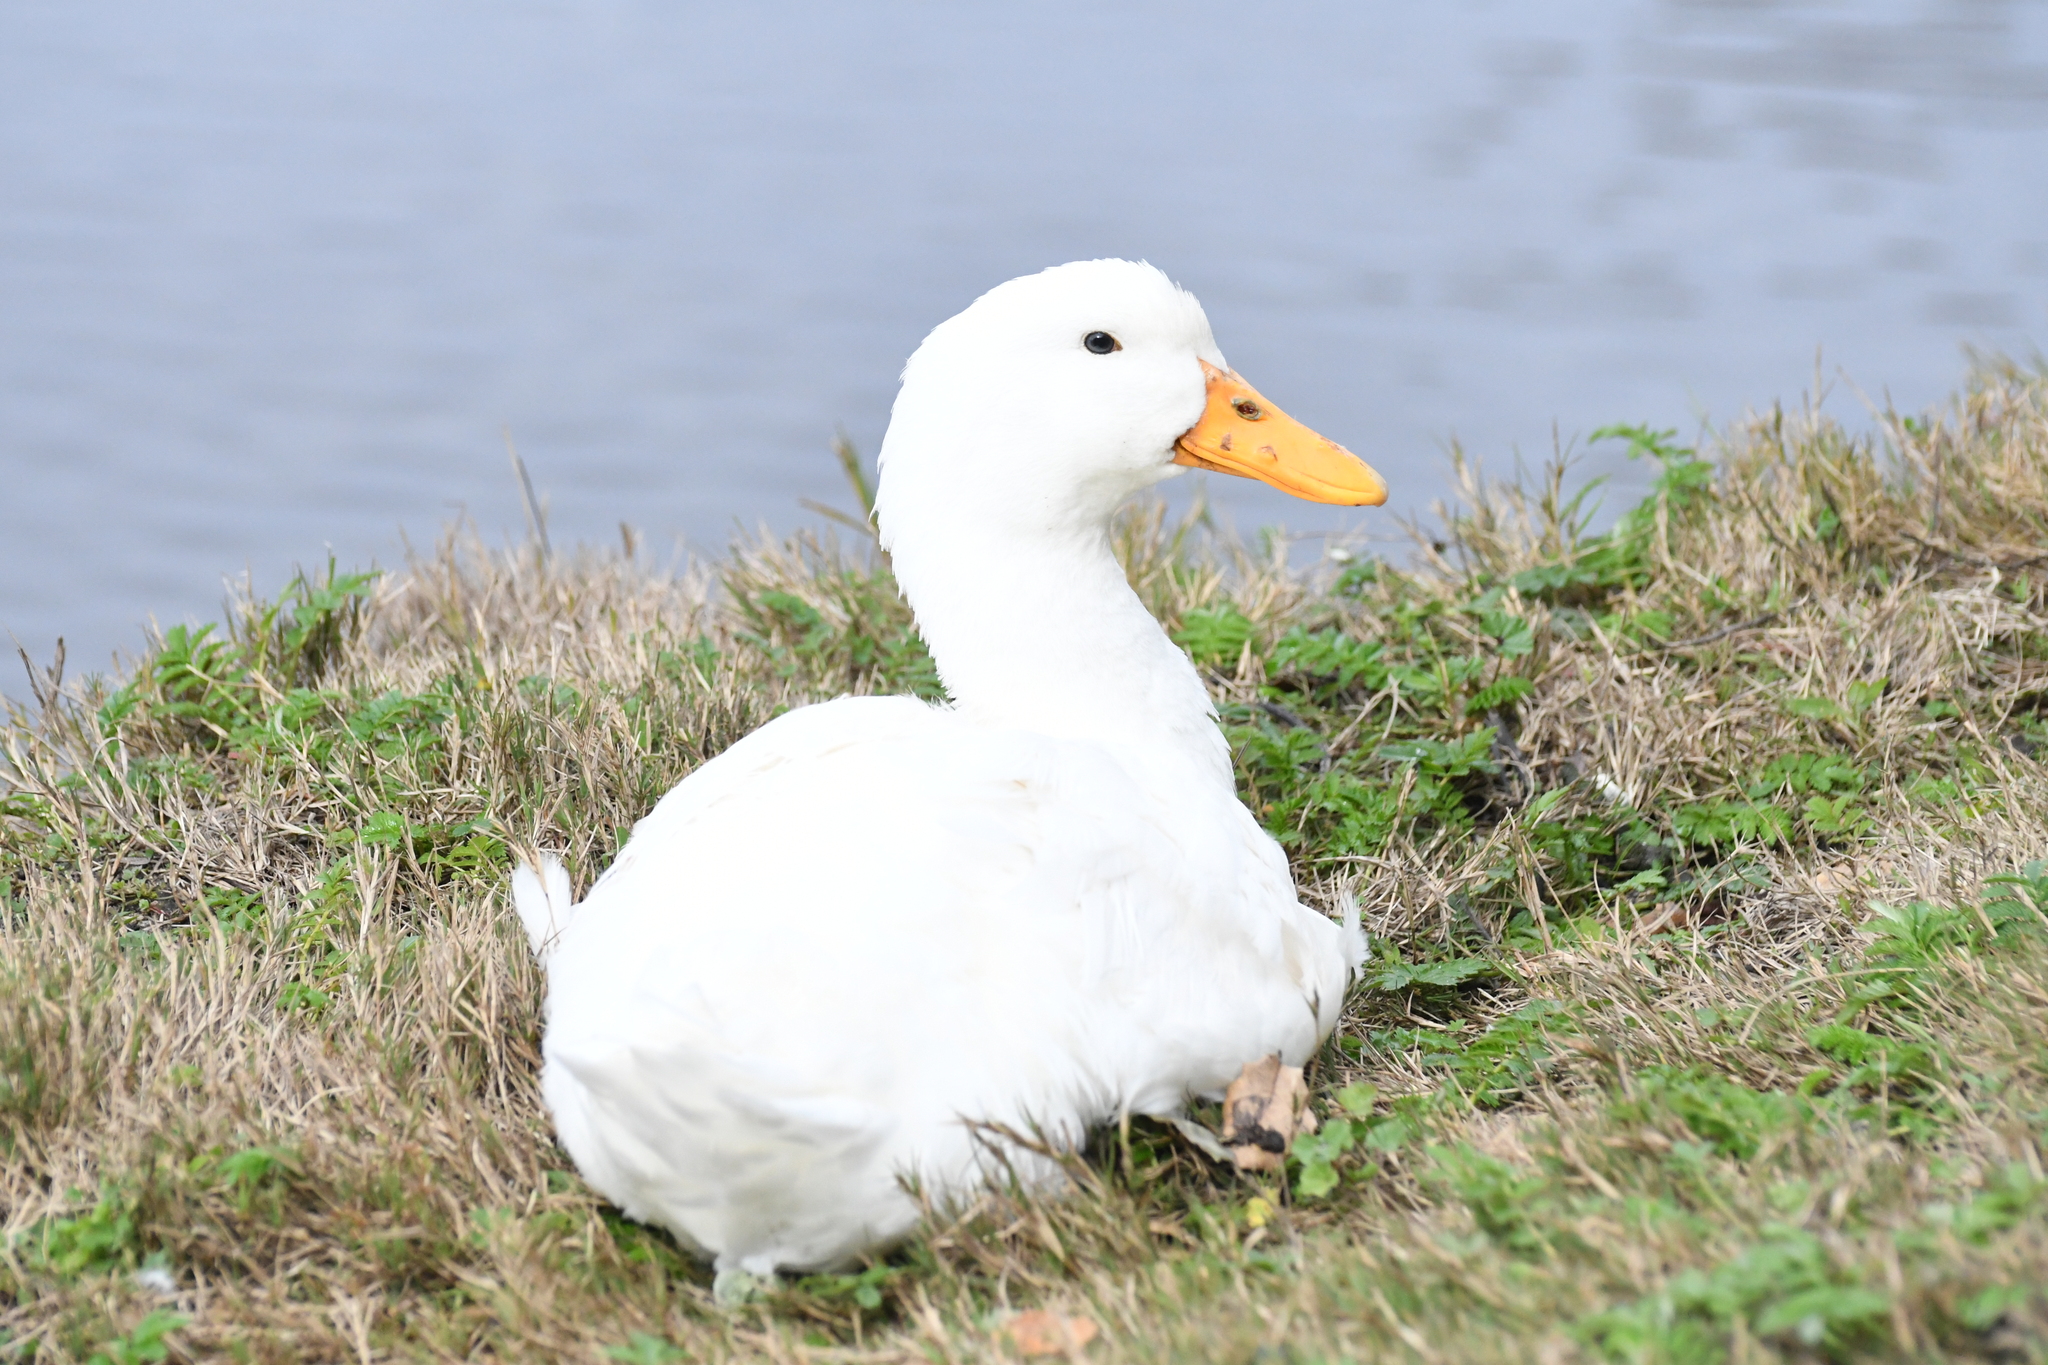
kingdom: Animalia
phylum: Chordata
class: Aves
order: Anseriformes
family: Anatidae
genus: Anas
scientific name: Anas platyrhynchos
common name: Mallard
